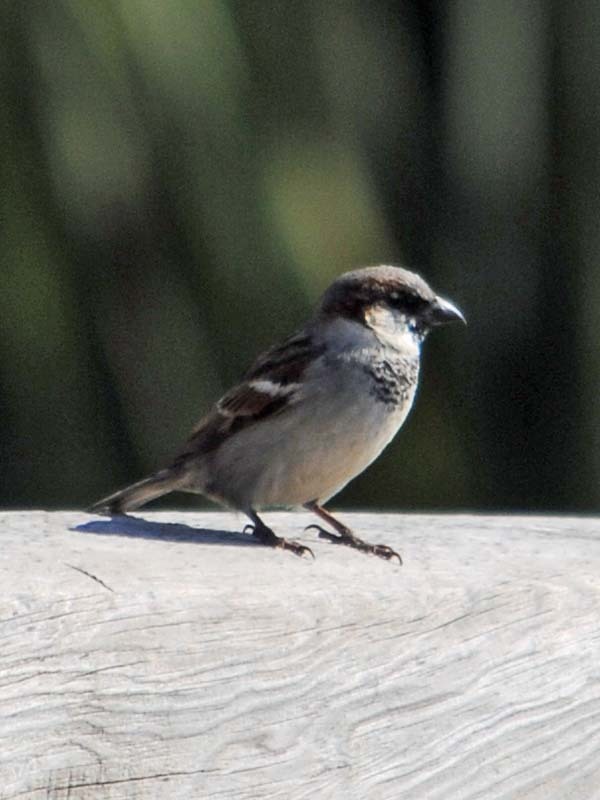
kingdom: Animalia
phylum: Chordata
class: Aves
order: Passeriformes
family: Passeridae
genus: Passer
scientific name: Passer domesticus
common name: House sparrow
